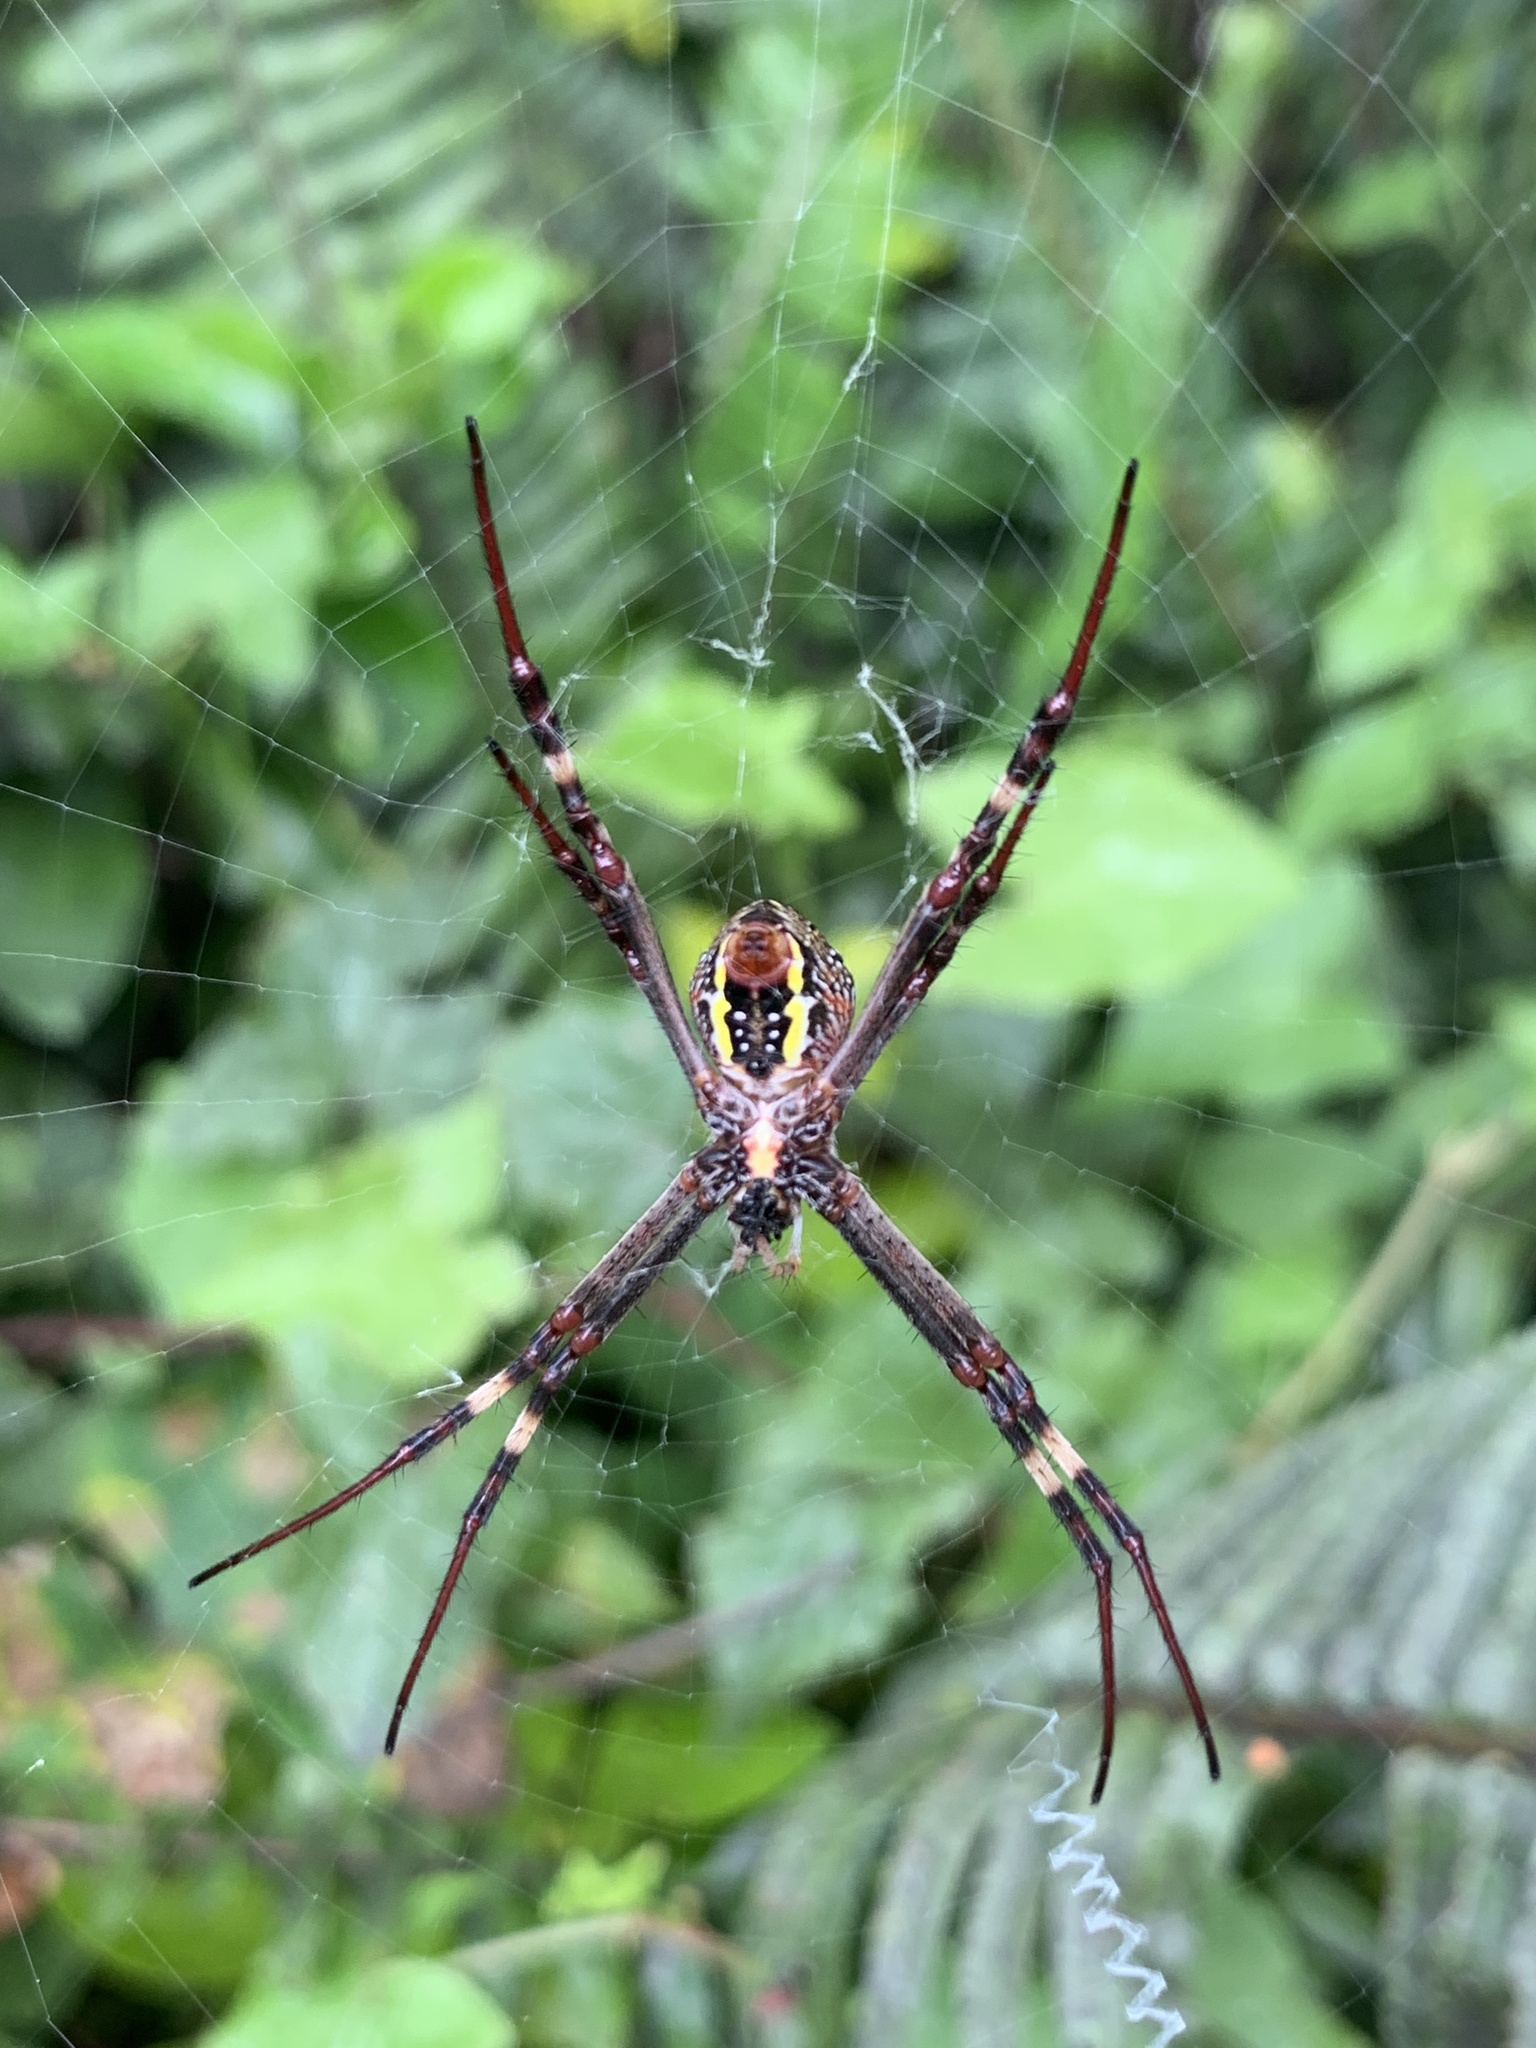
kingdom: Animalia
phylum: Arthropoda
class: Arachnida
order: Araneae
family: Araneidae
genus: Argiope
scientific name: Argiope keyserlingi
